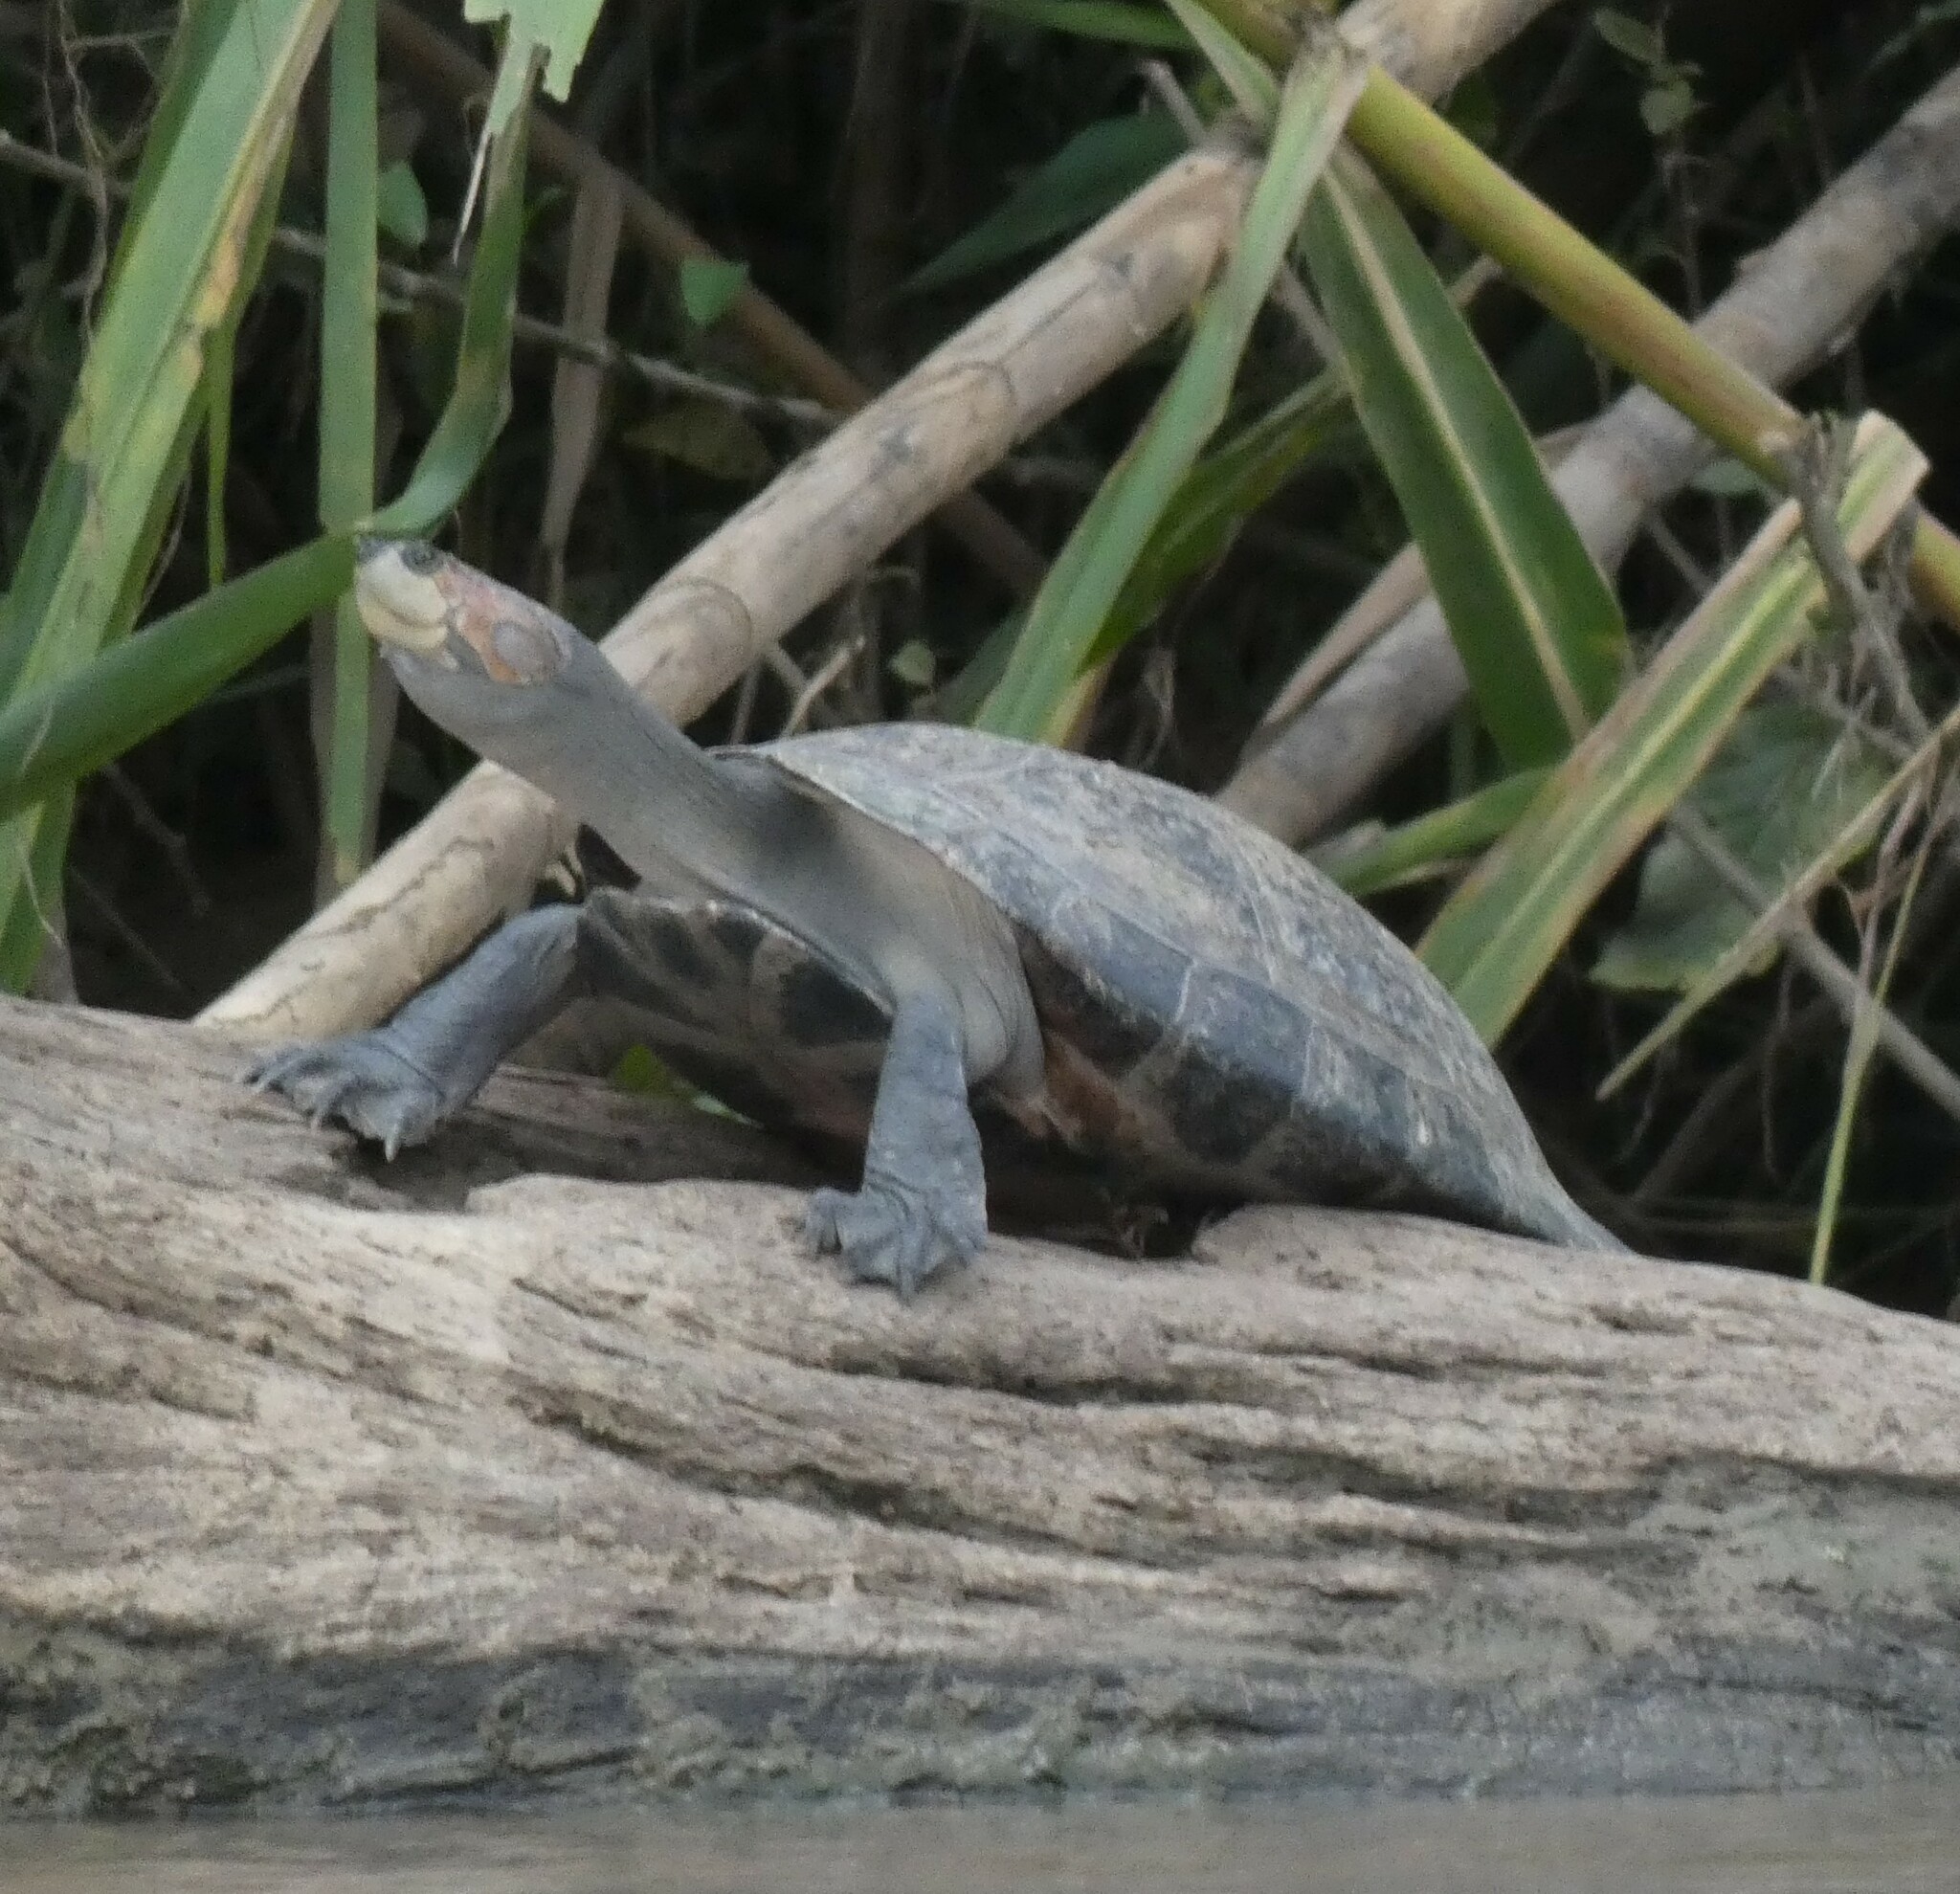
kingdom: Animalia
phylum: Chordata
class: Testudines
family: Podocnemididae
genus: Podocnemis
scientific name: Podocnemis unifilis
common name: Yellow-spotted amazon river turtle
